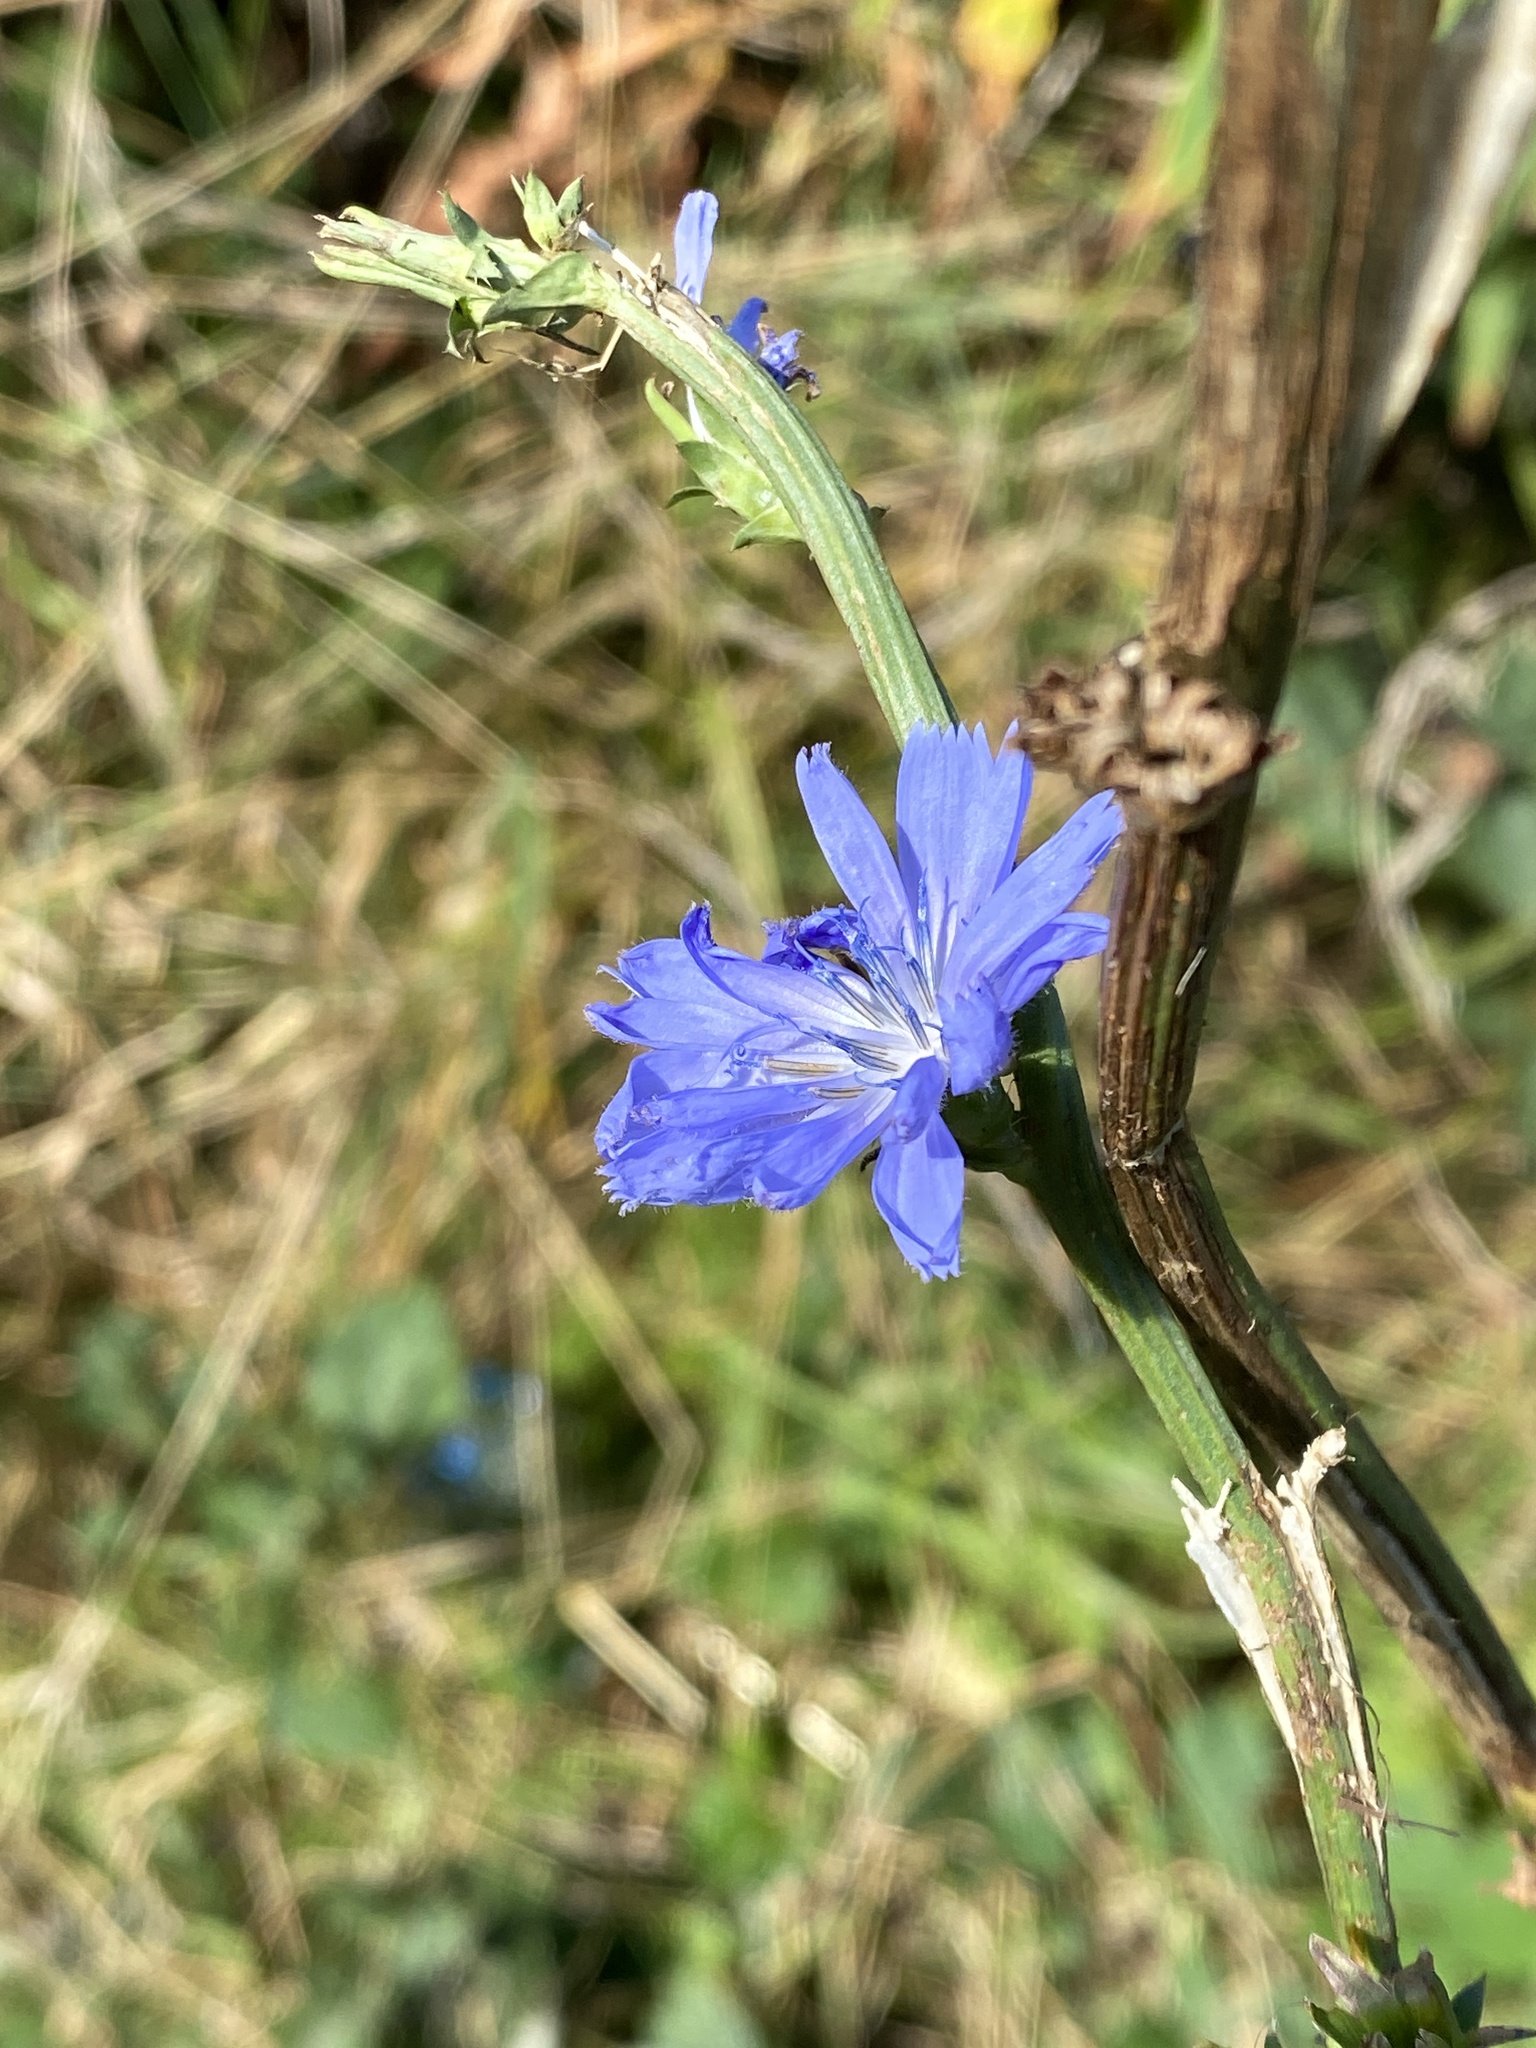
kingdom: Plantae
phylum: Tracheophyta
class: Magnoliopsida
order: Asterales
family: Asteraceae
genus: Cichorium
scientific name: Cichorium intybus
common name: Chicory
